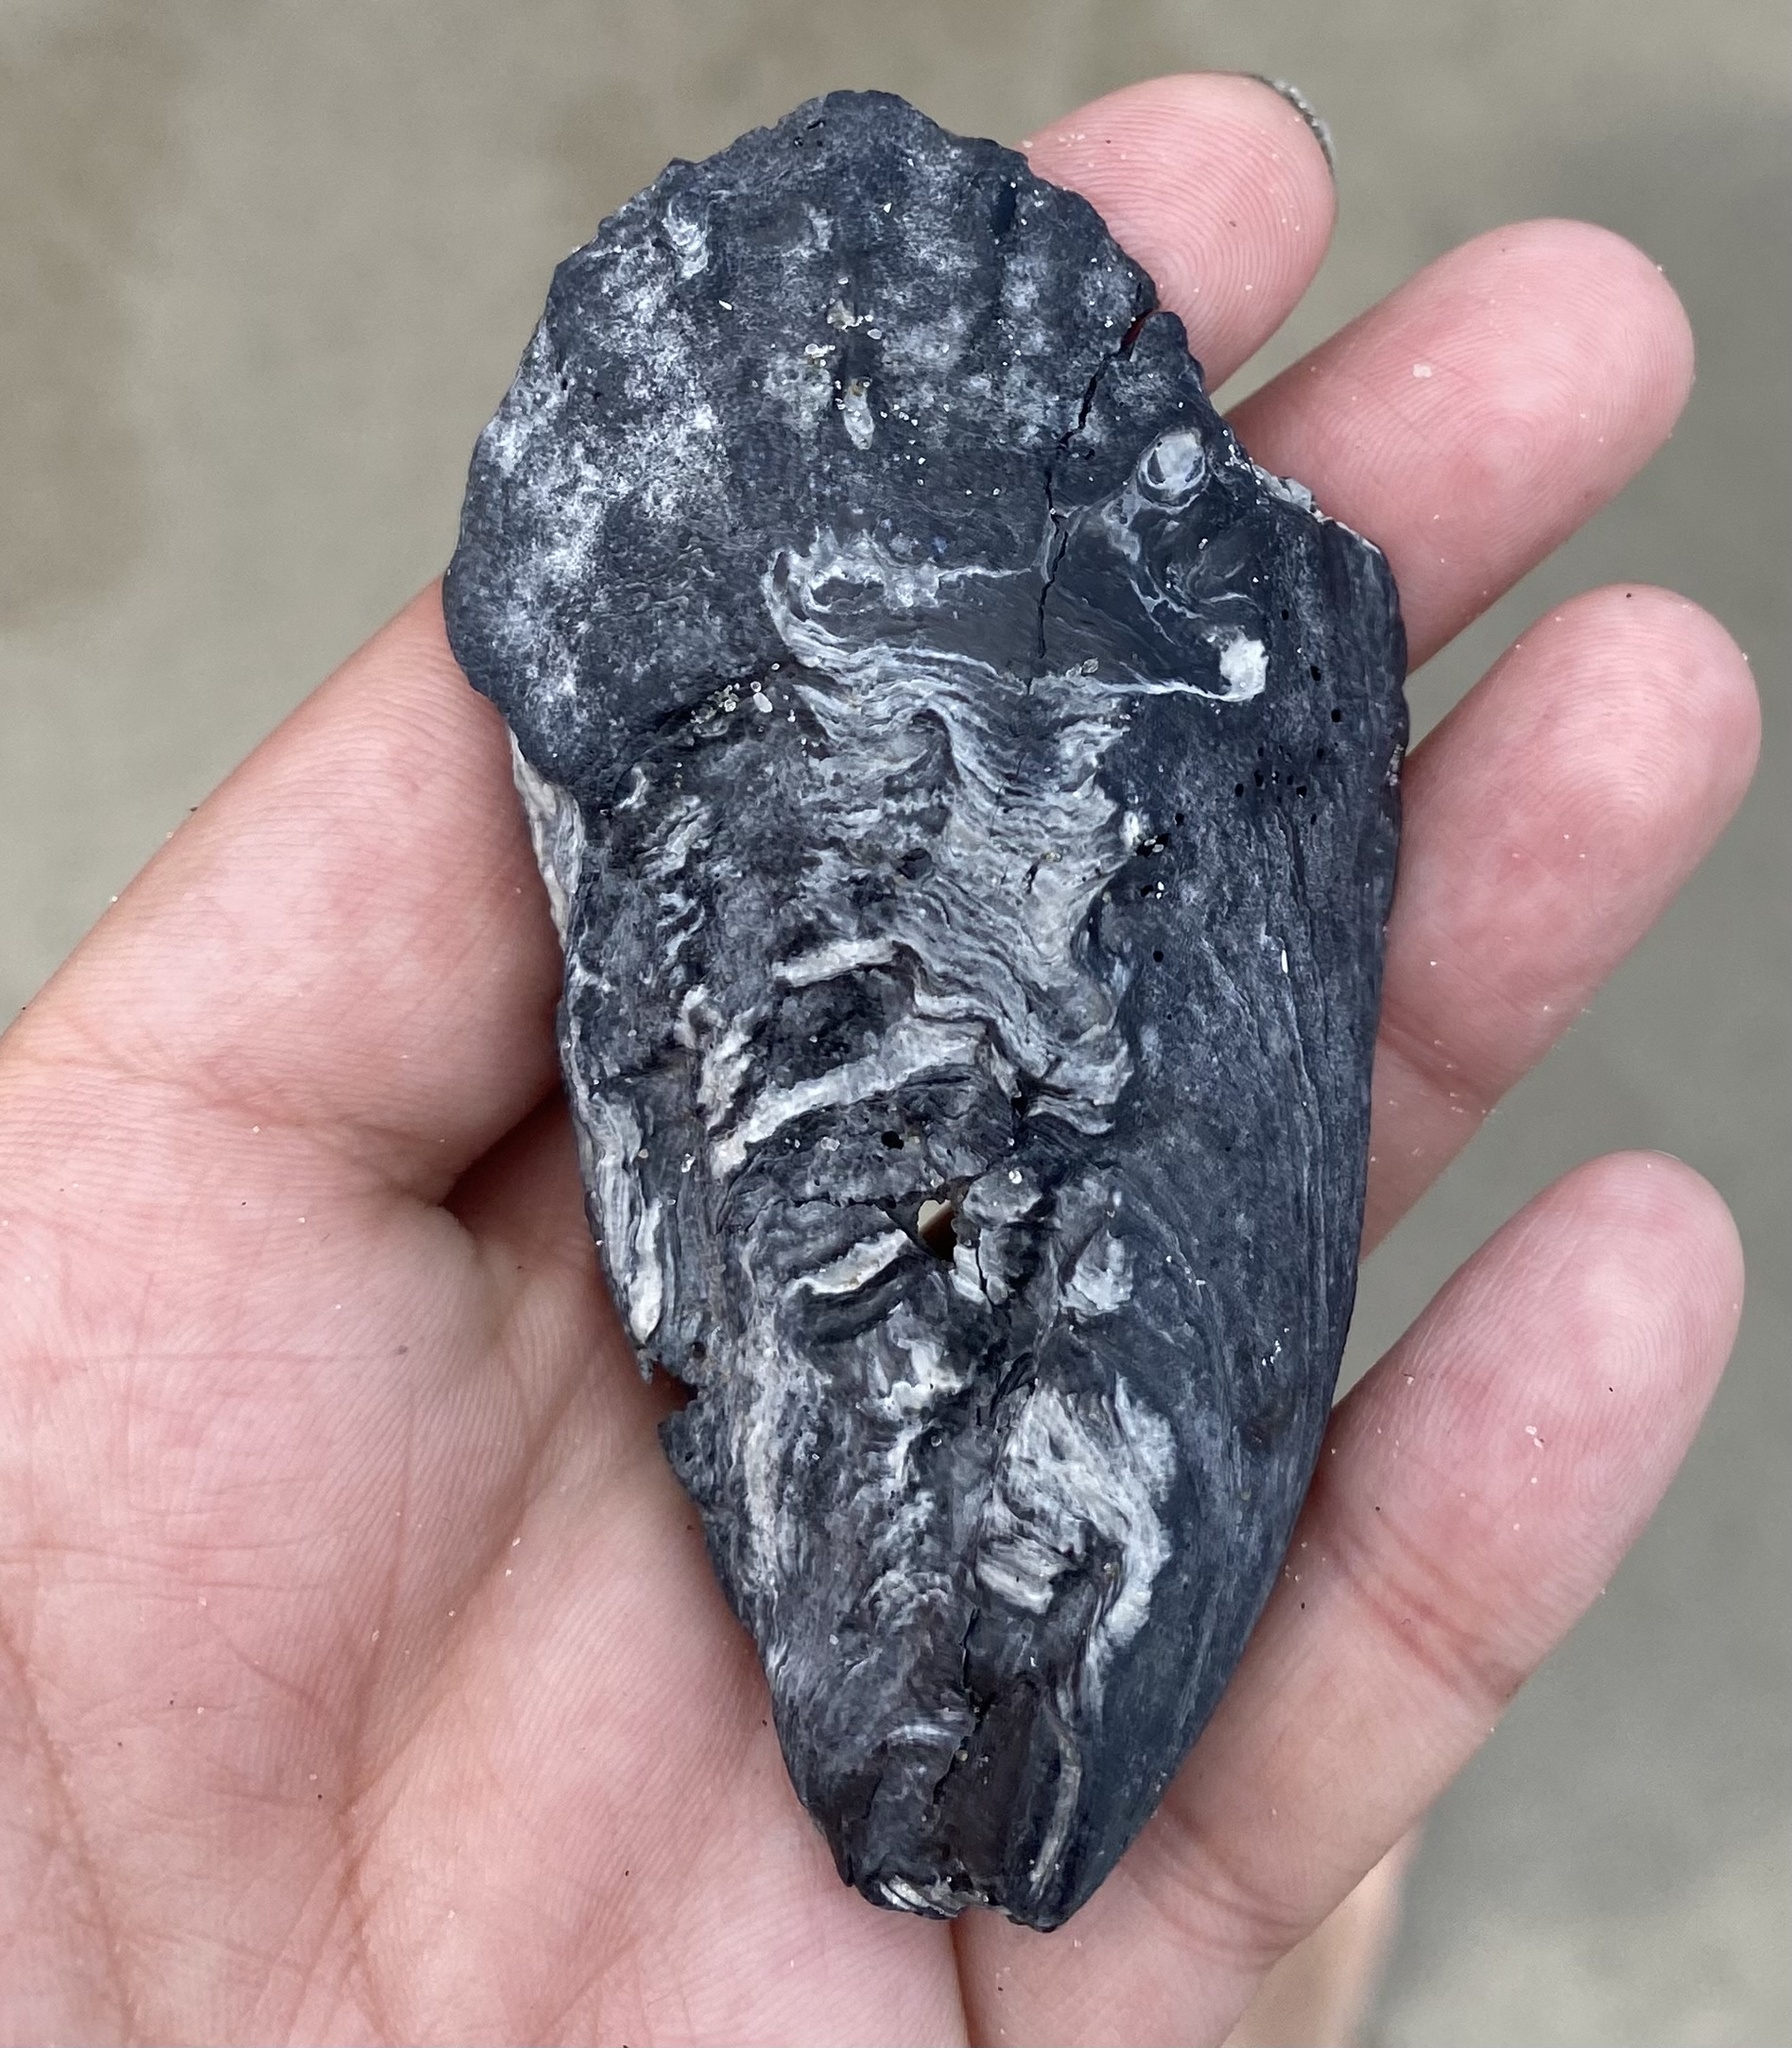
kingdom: Animalia
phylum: Mollusca
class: Bivalvia
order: Ostreida
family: Ostreidae
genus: Crassostrea
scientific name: Crassostrea virginica
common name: American oyster
